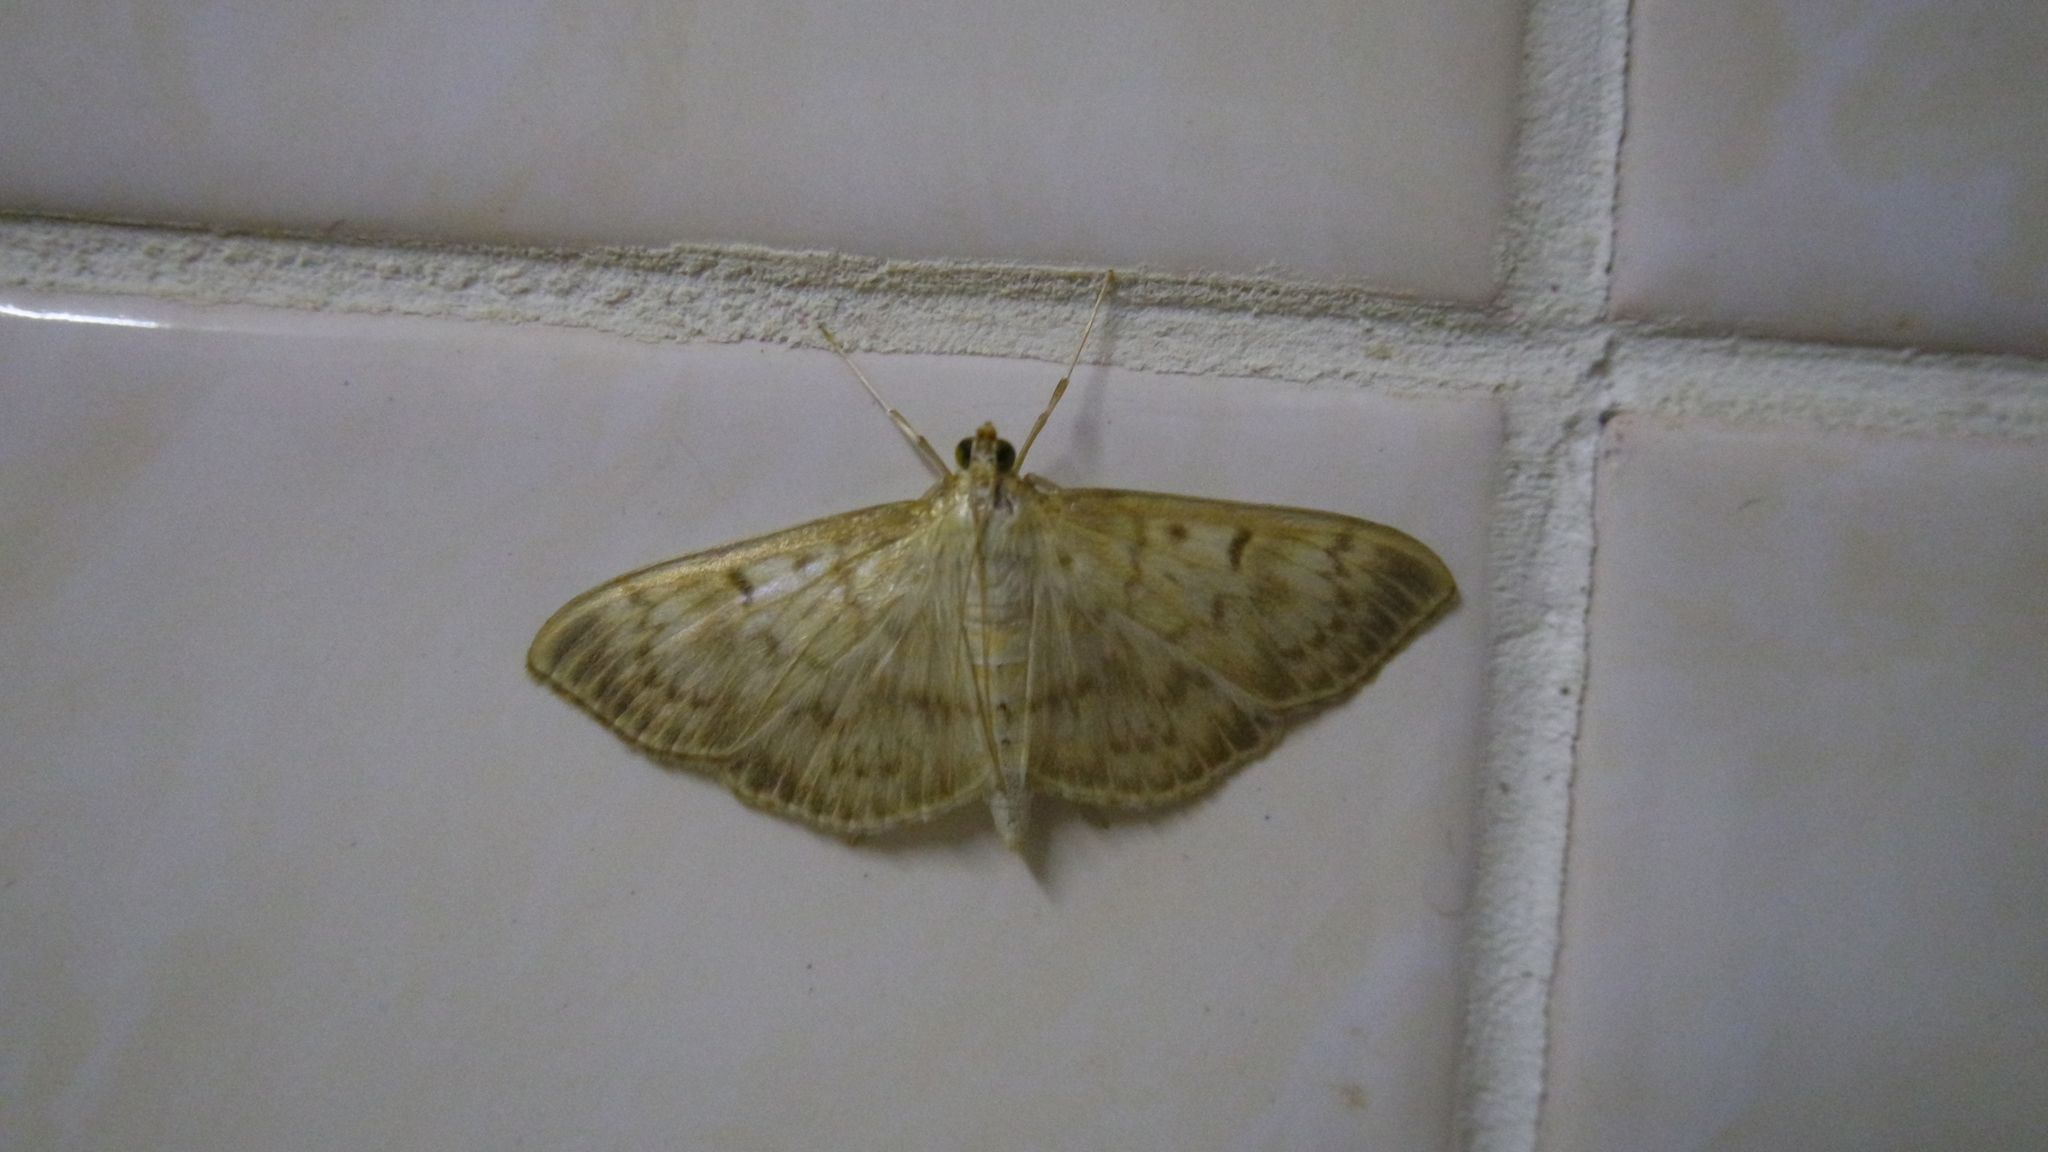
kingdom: Animalia
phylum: Arthropoda
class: Insecta
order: Lepidoptera
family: Crambidae
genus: Patania
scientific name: Patania ruralis
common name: Mother of pearl
